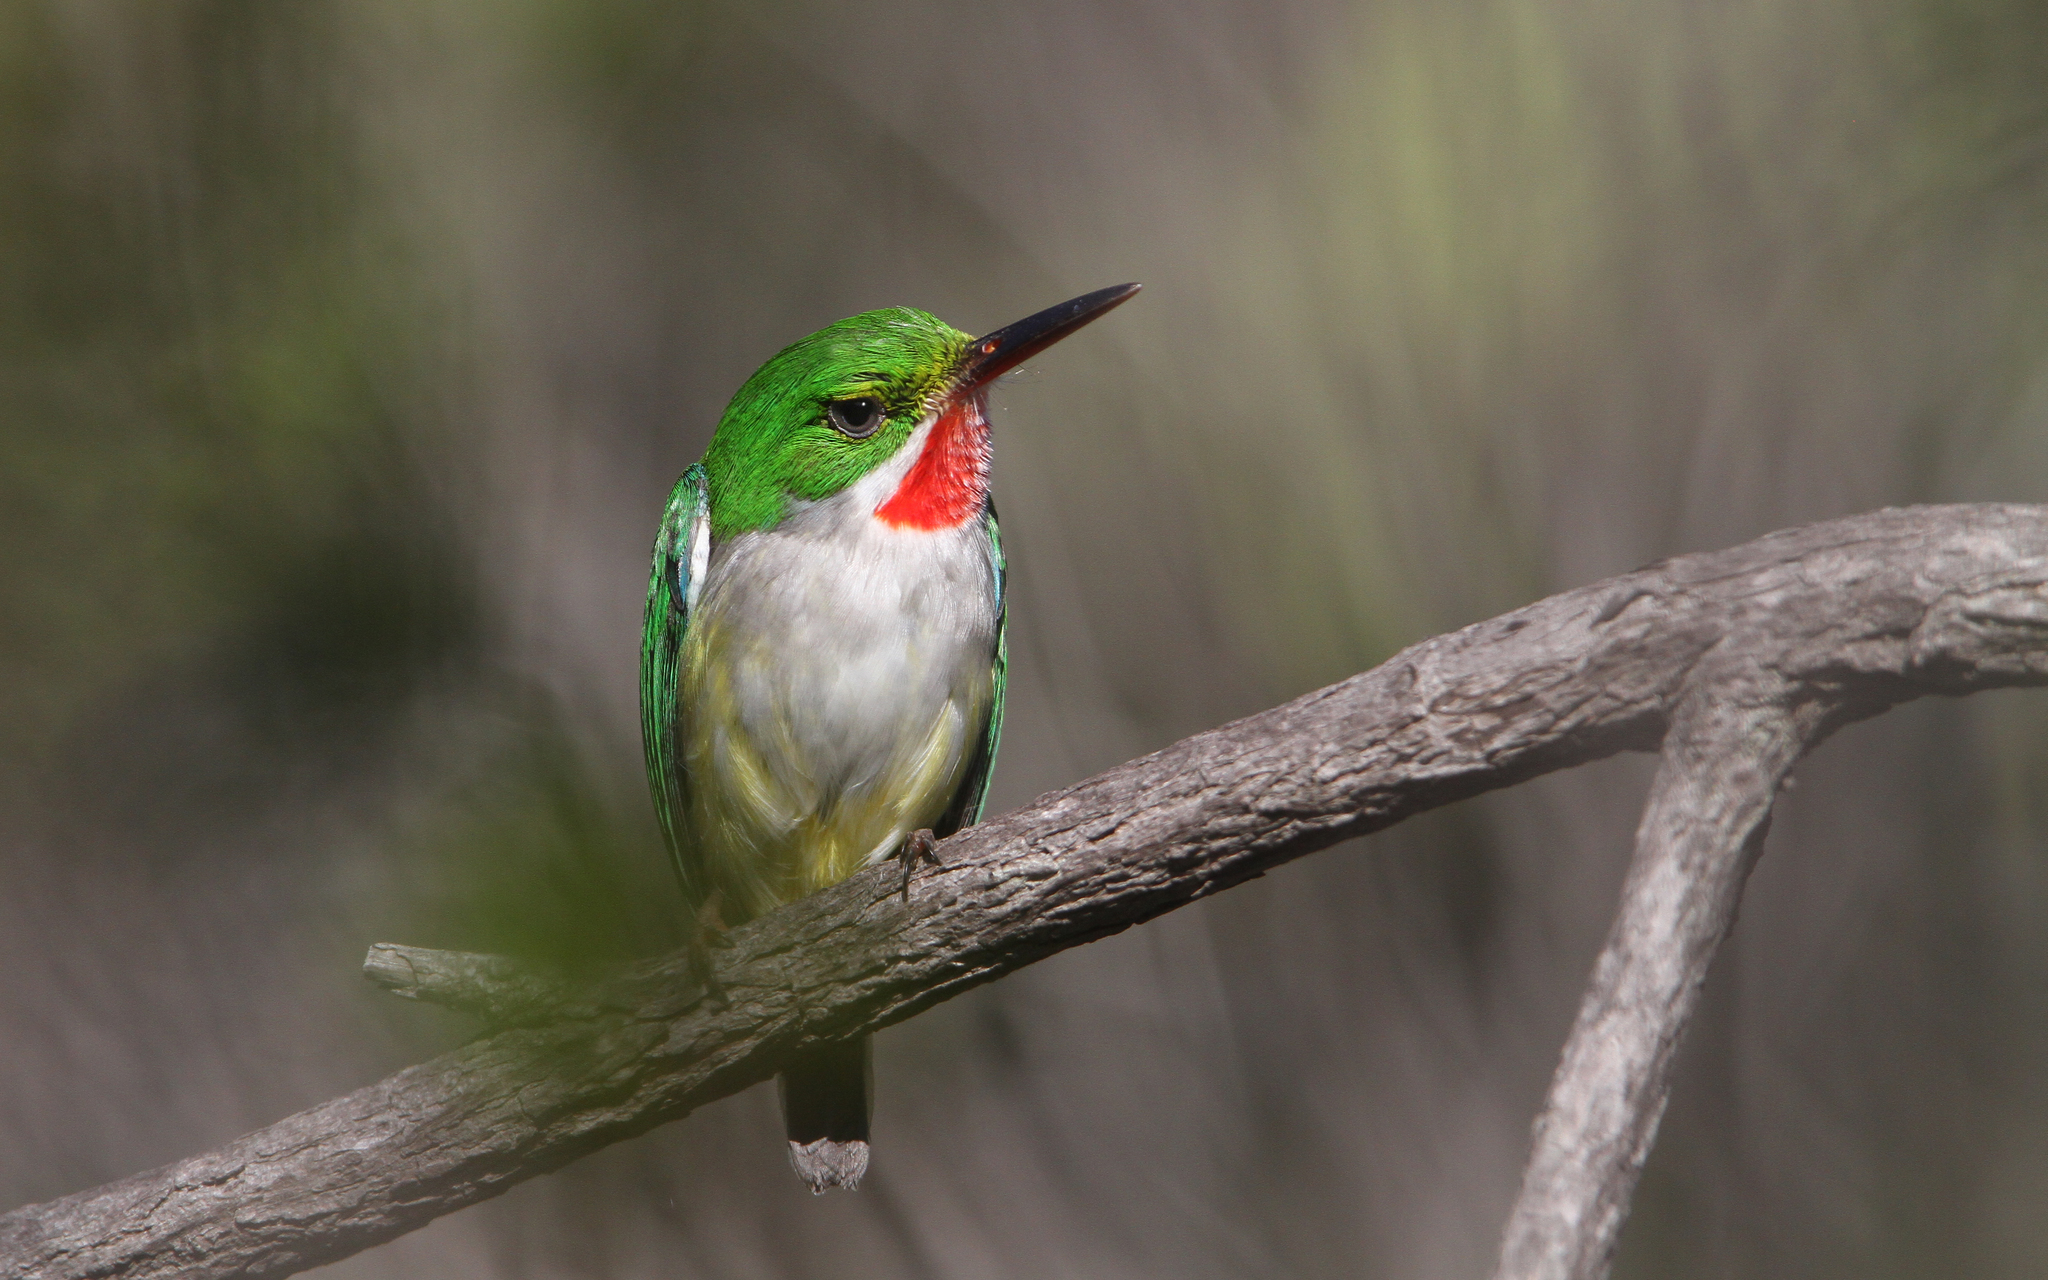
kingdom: Animalia
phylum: Chordata
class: Aves
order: Coraciiformes
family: Todidae
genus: Todus
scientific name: Todus mexicanus
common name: Puerto rican tody
